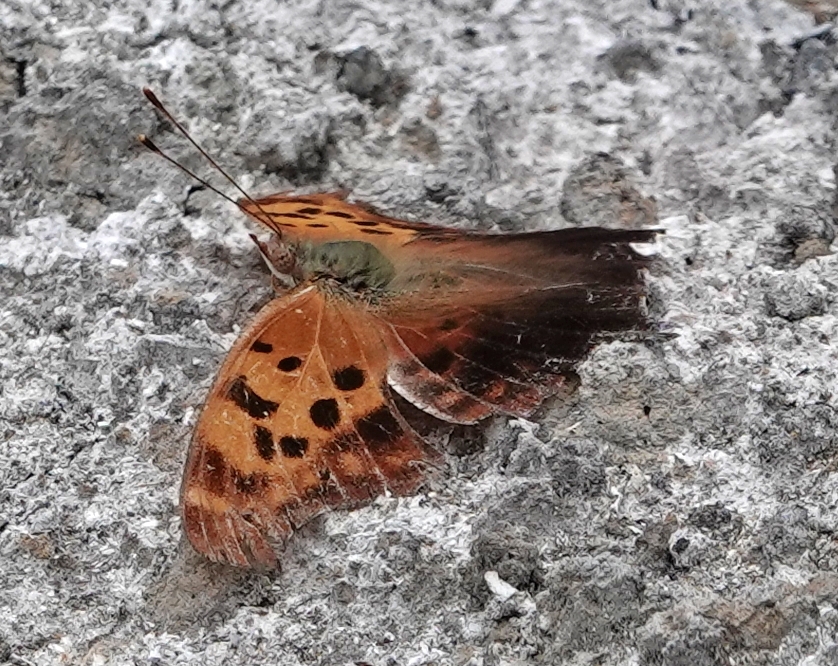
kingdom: Animalia
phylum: Arthropoda
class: Insecta
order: Lepidoptera
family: Nymphalidae
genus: Polygonia
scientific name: Polygonia interrogationis
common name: Question mark
